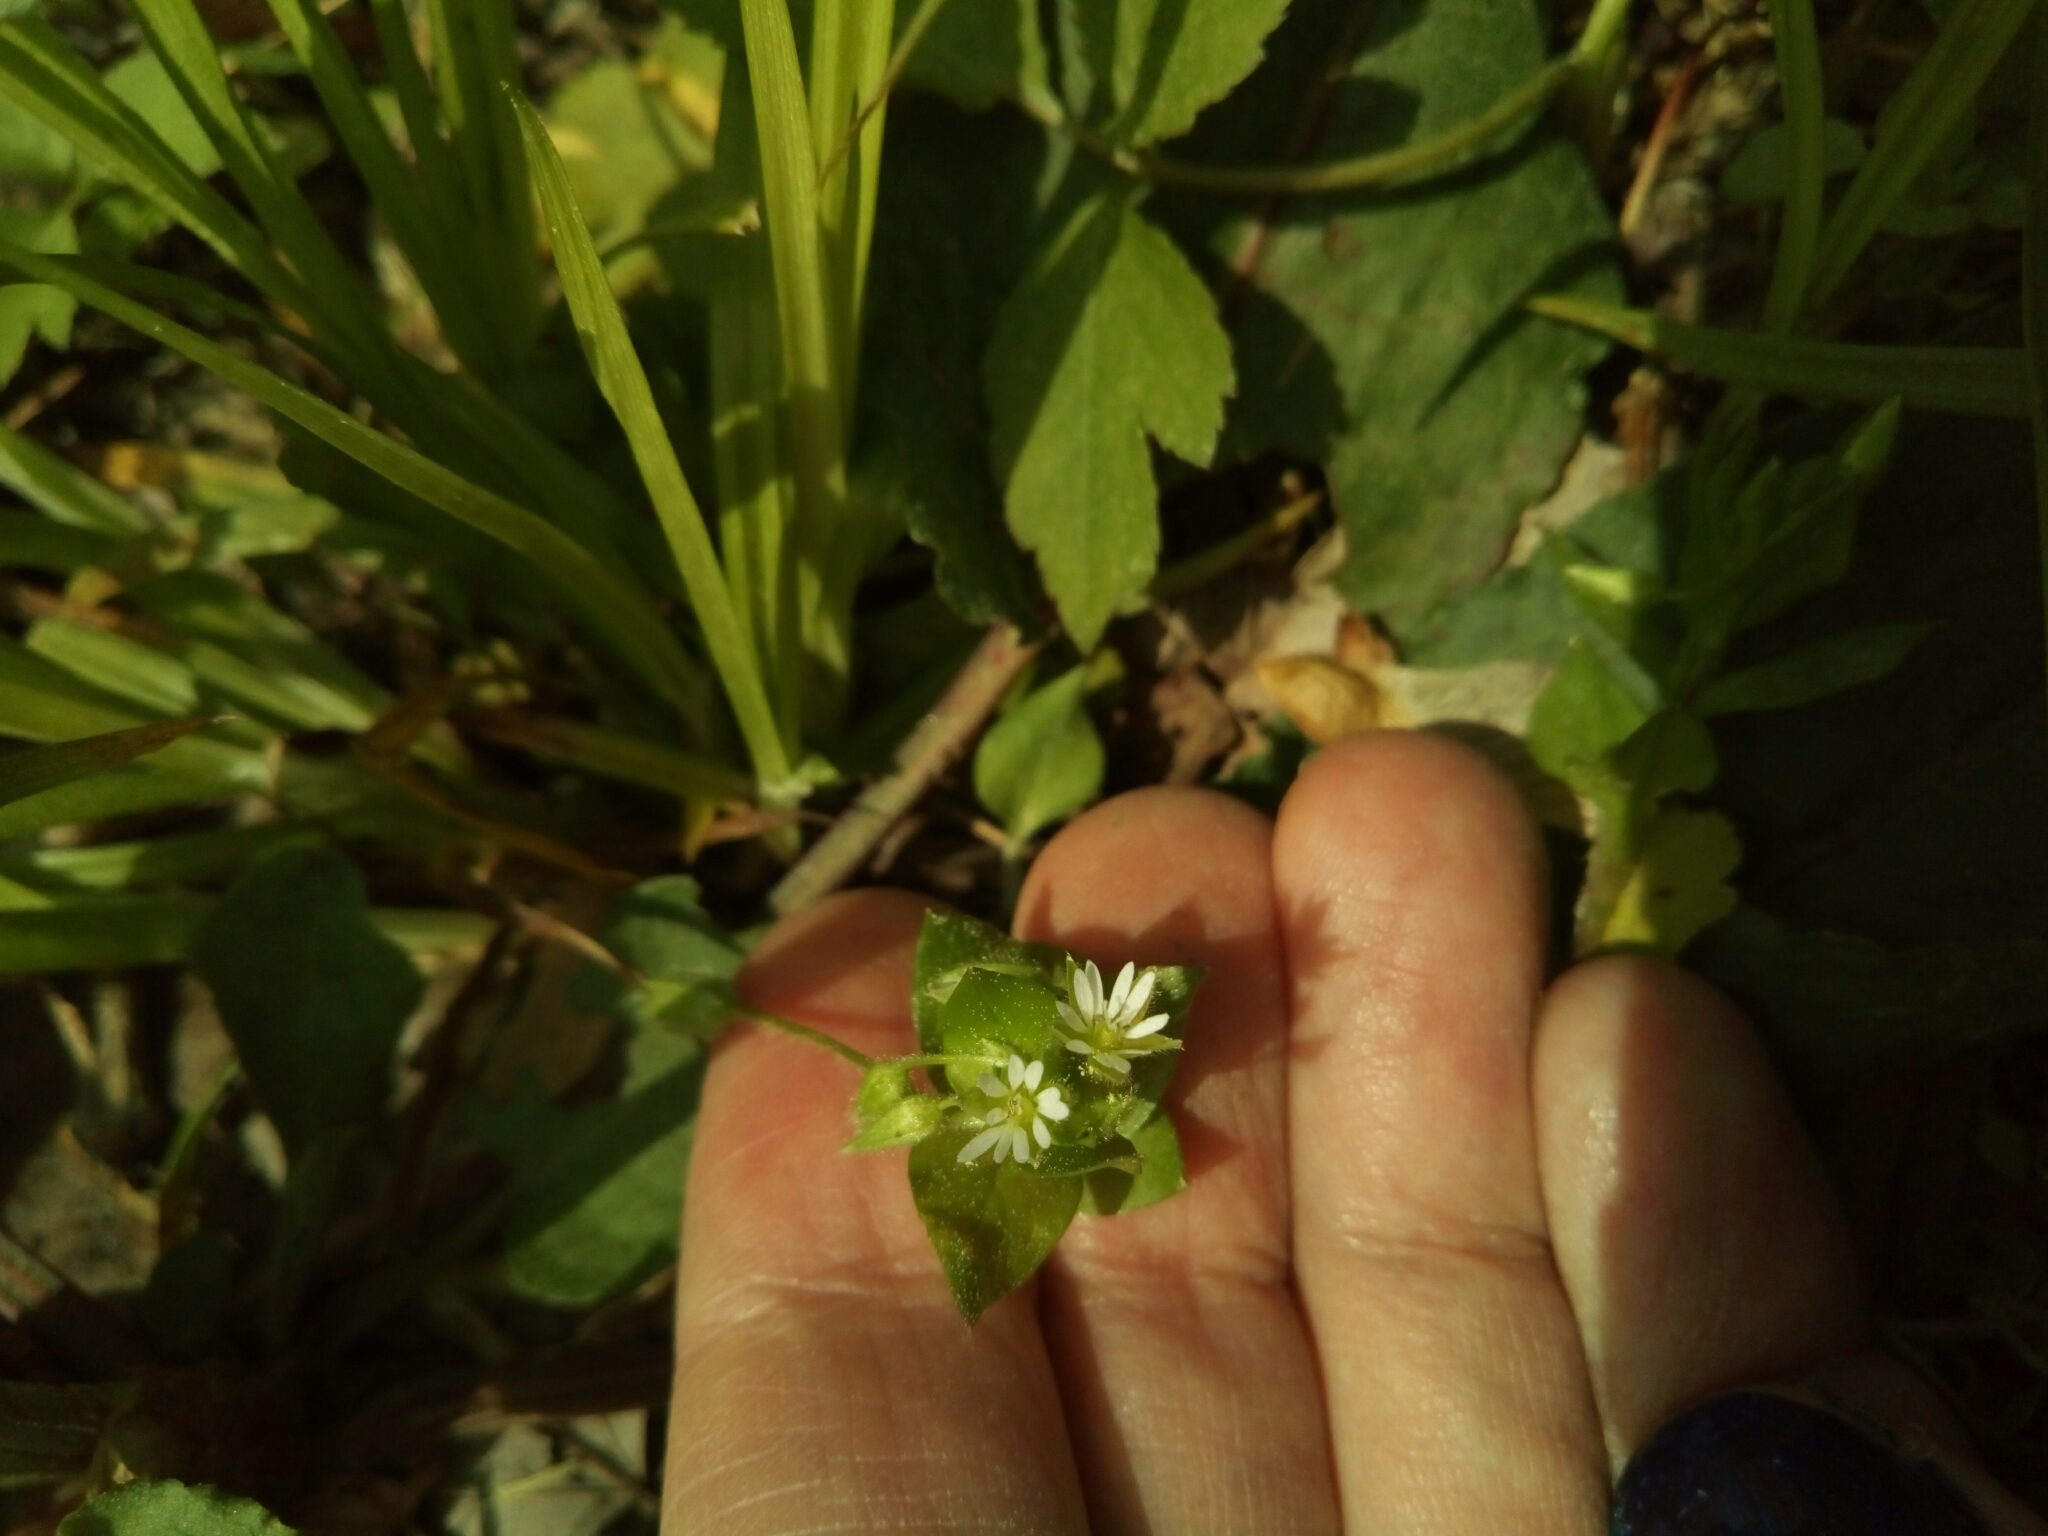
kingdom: Plantae
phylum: Tracheophyta
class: Magnoliopsida
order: Caryophyllales
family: Caryophyllaceae
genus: Stellaria
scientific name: Stellaria media
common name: Common chickweed
